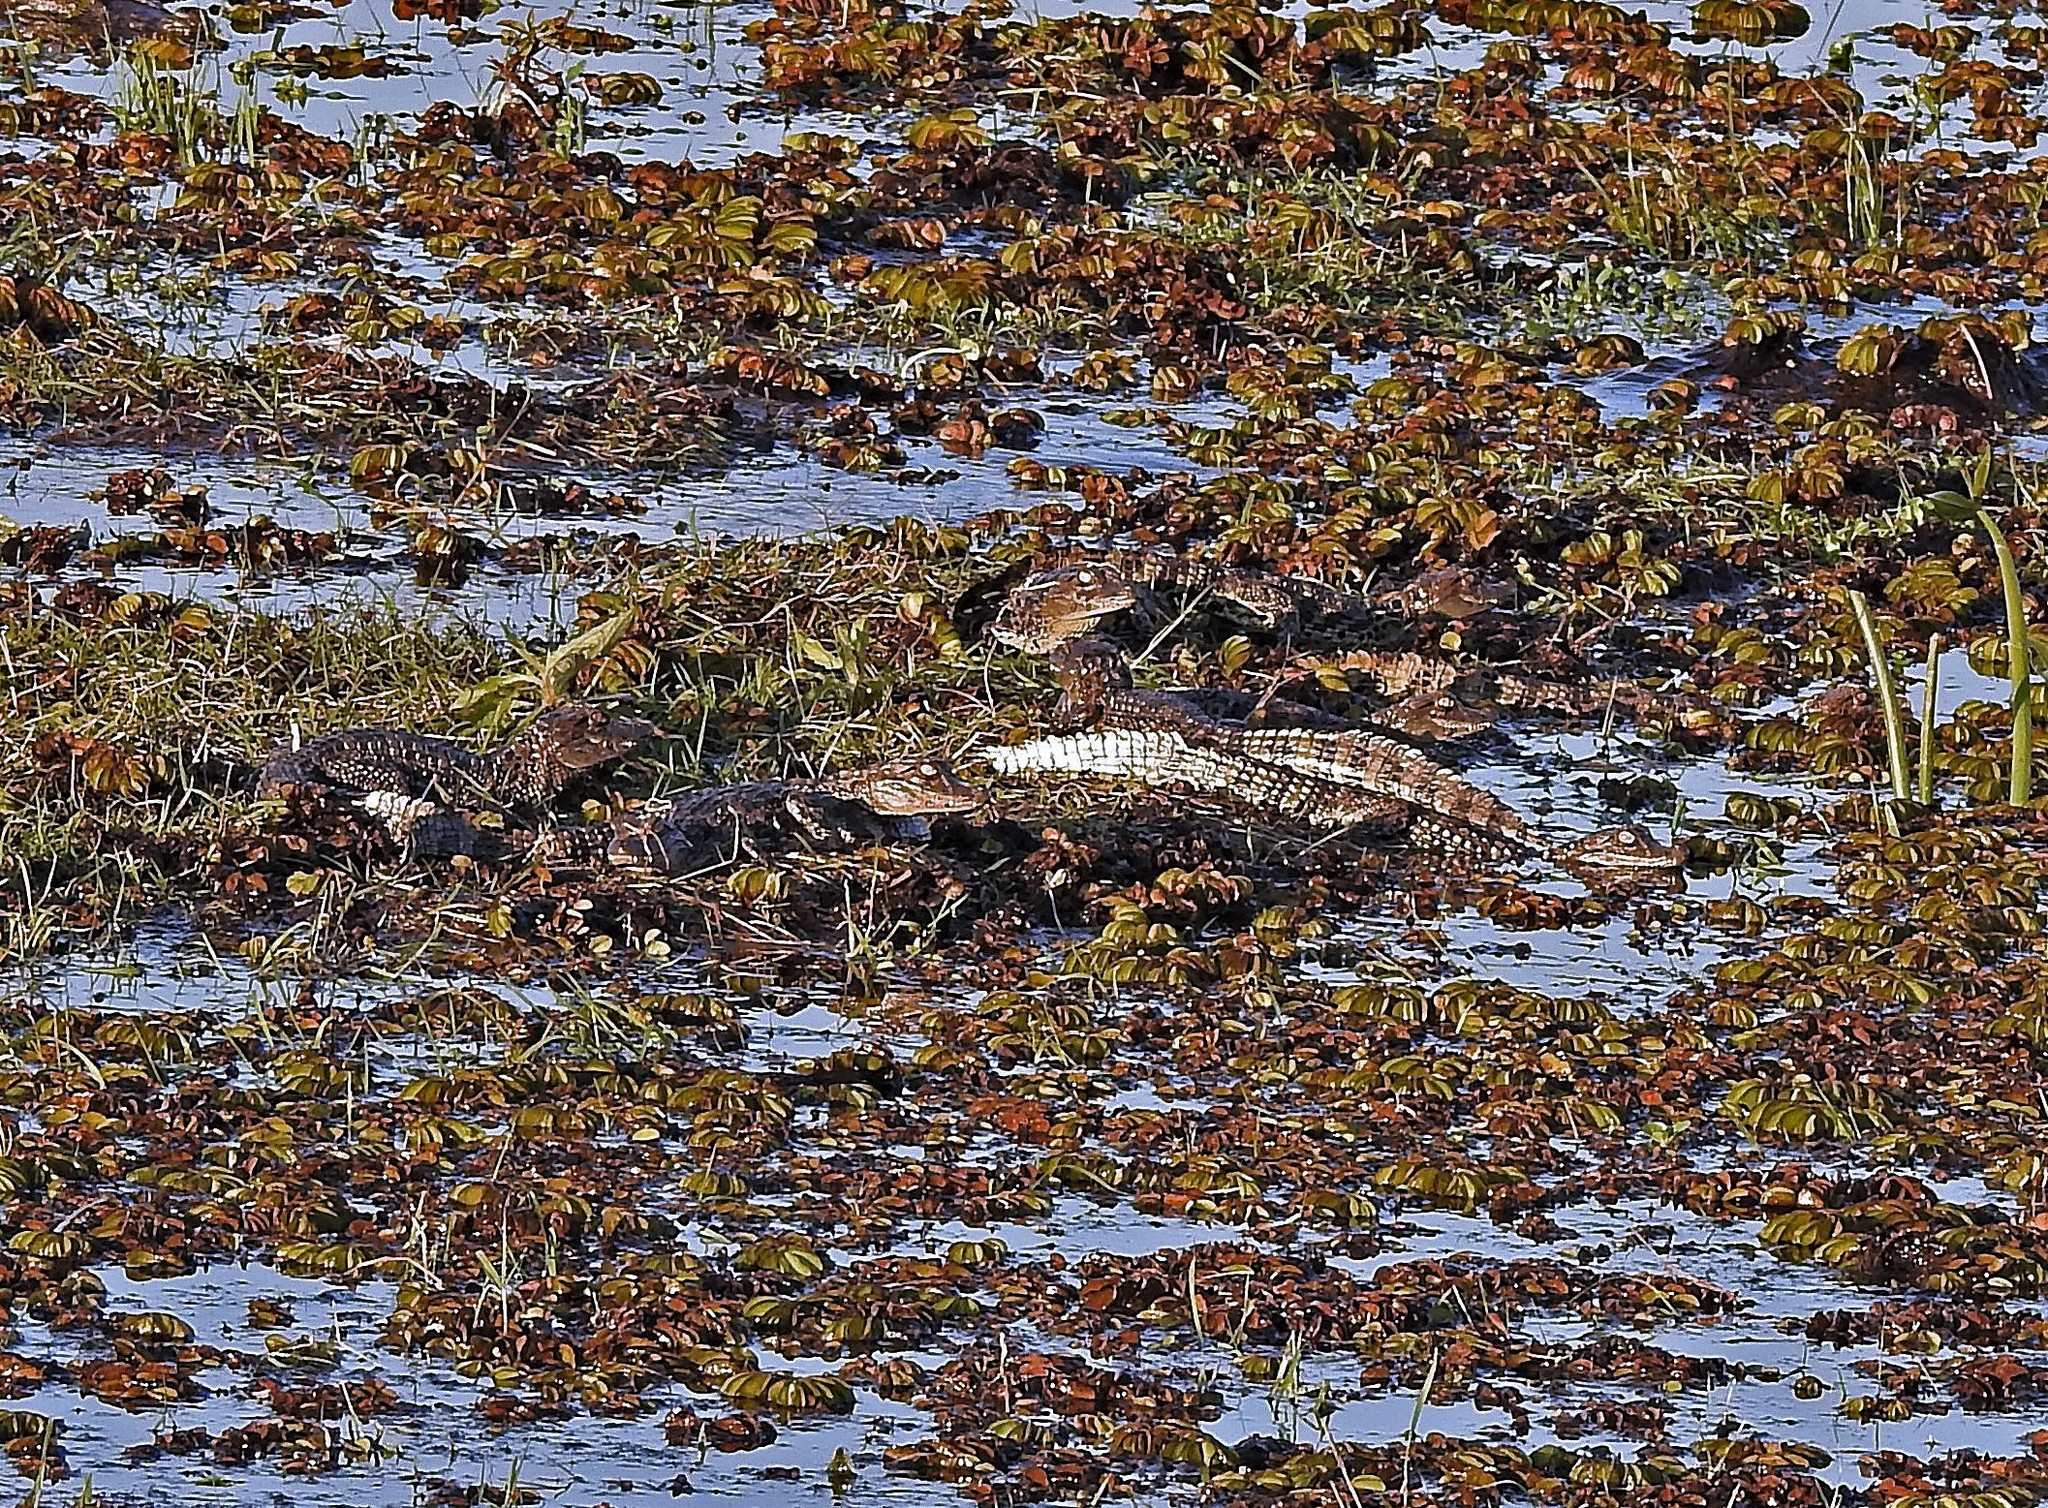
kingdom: Animalia
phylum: Chordata
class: Crocodylia
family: Alligatoridae
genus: Caiman
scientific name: Caiman latirostris
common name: Broad-snouted caiman
